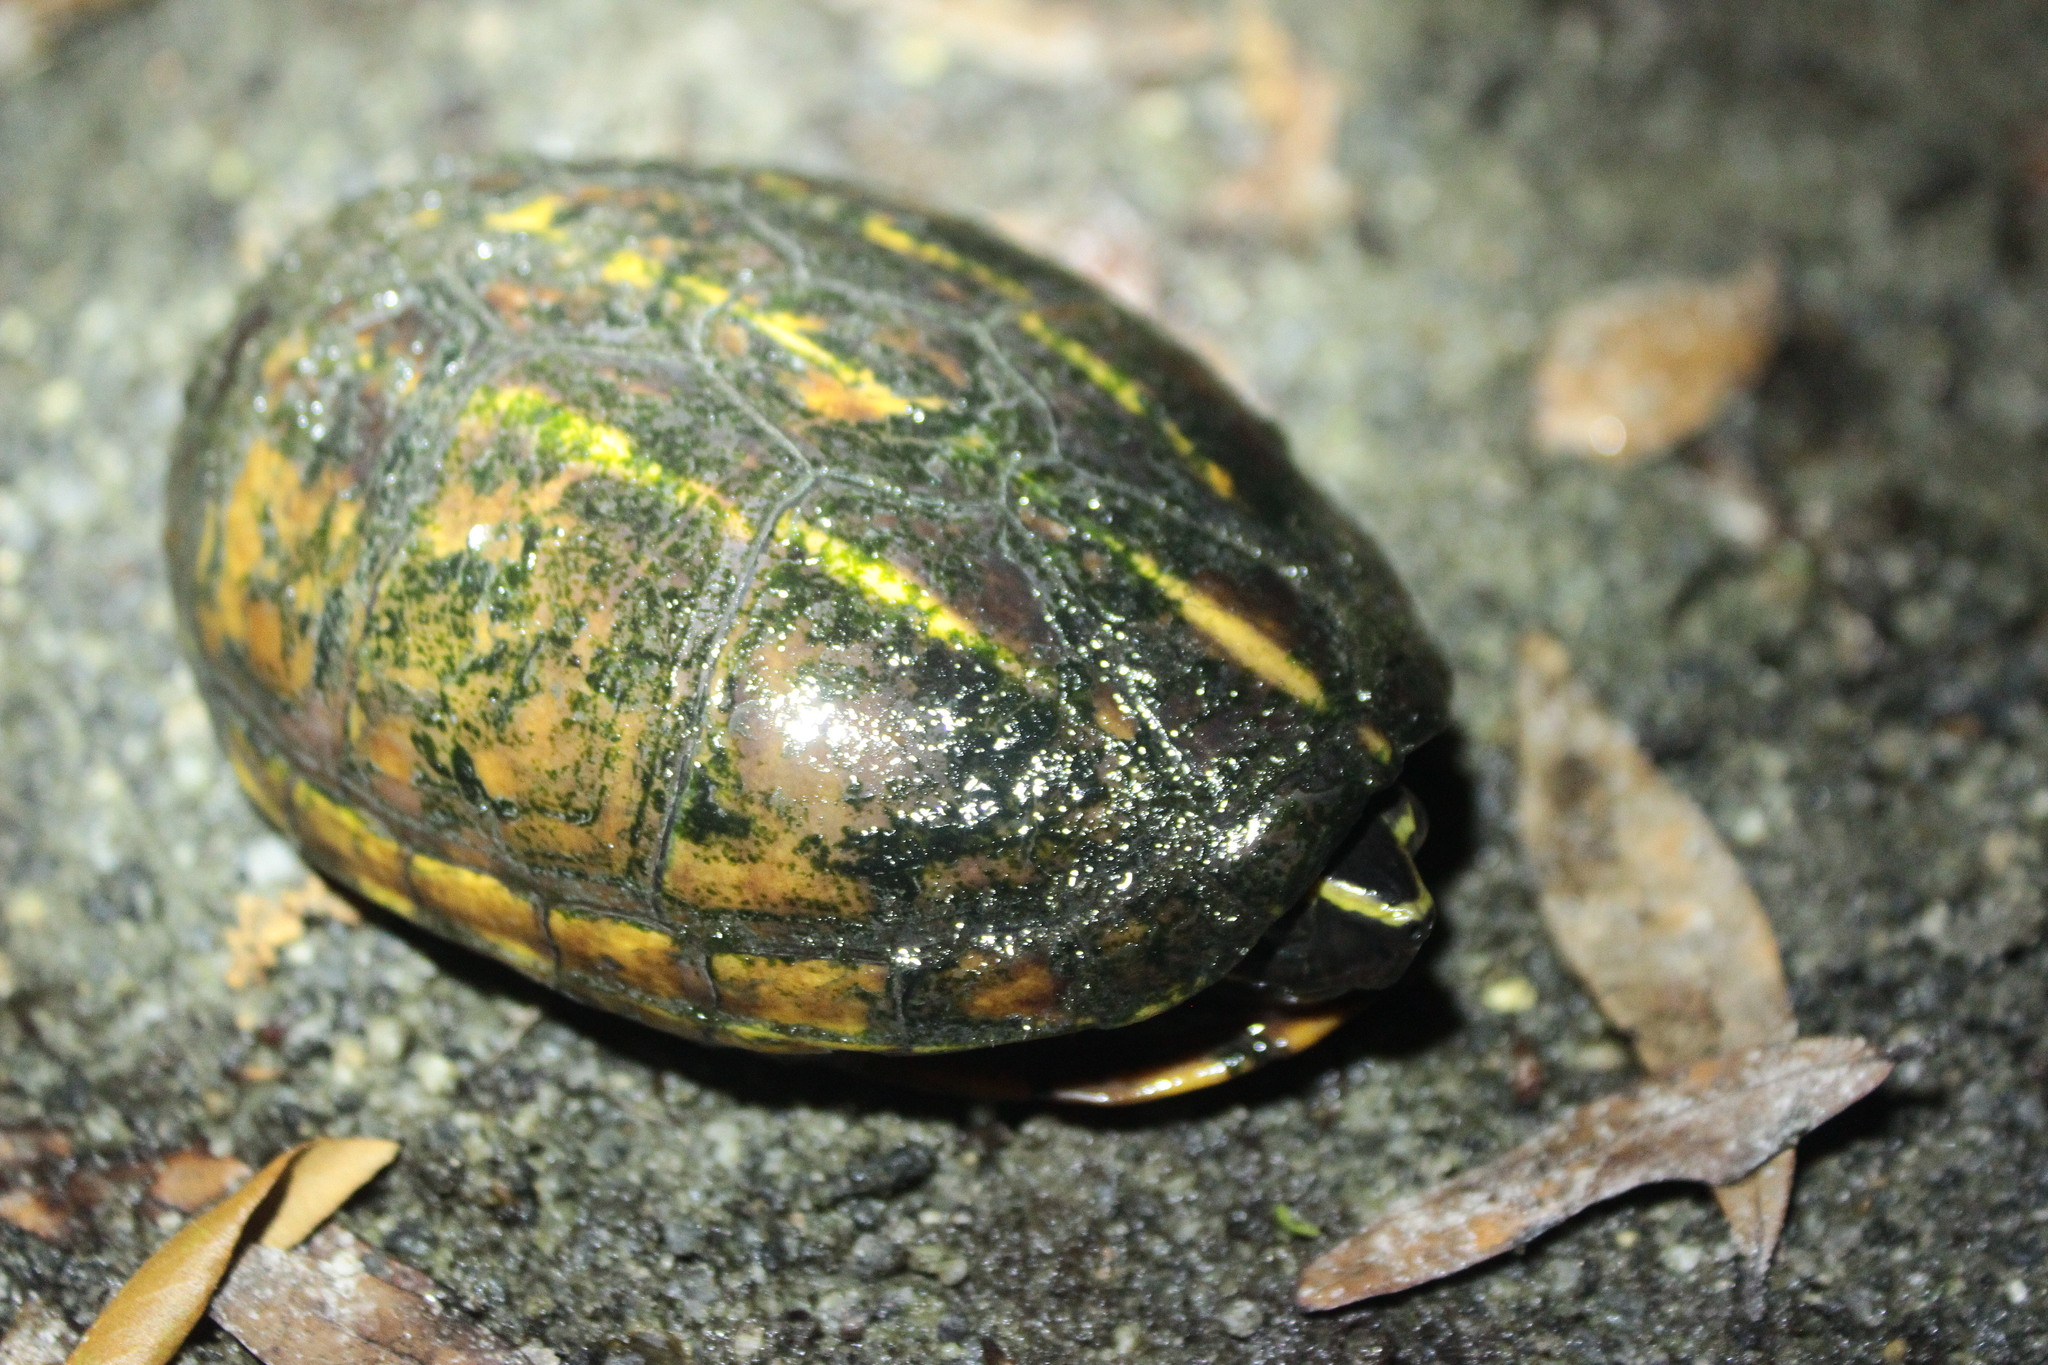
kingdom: Animalia
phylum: Chordata
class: Testudines
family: Kinosternidae
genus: Kinosternon
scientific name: Kinosternon baurii
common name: Striped mud turtle
